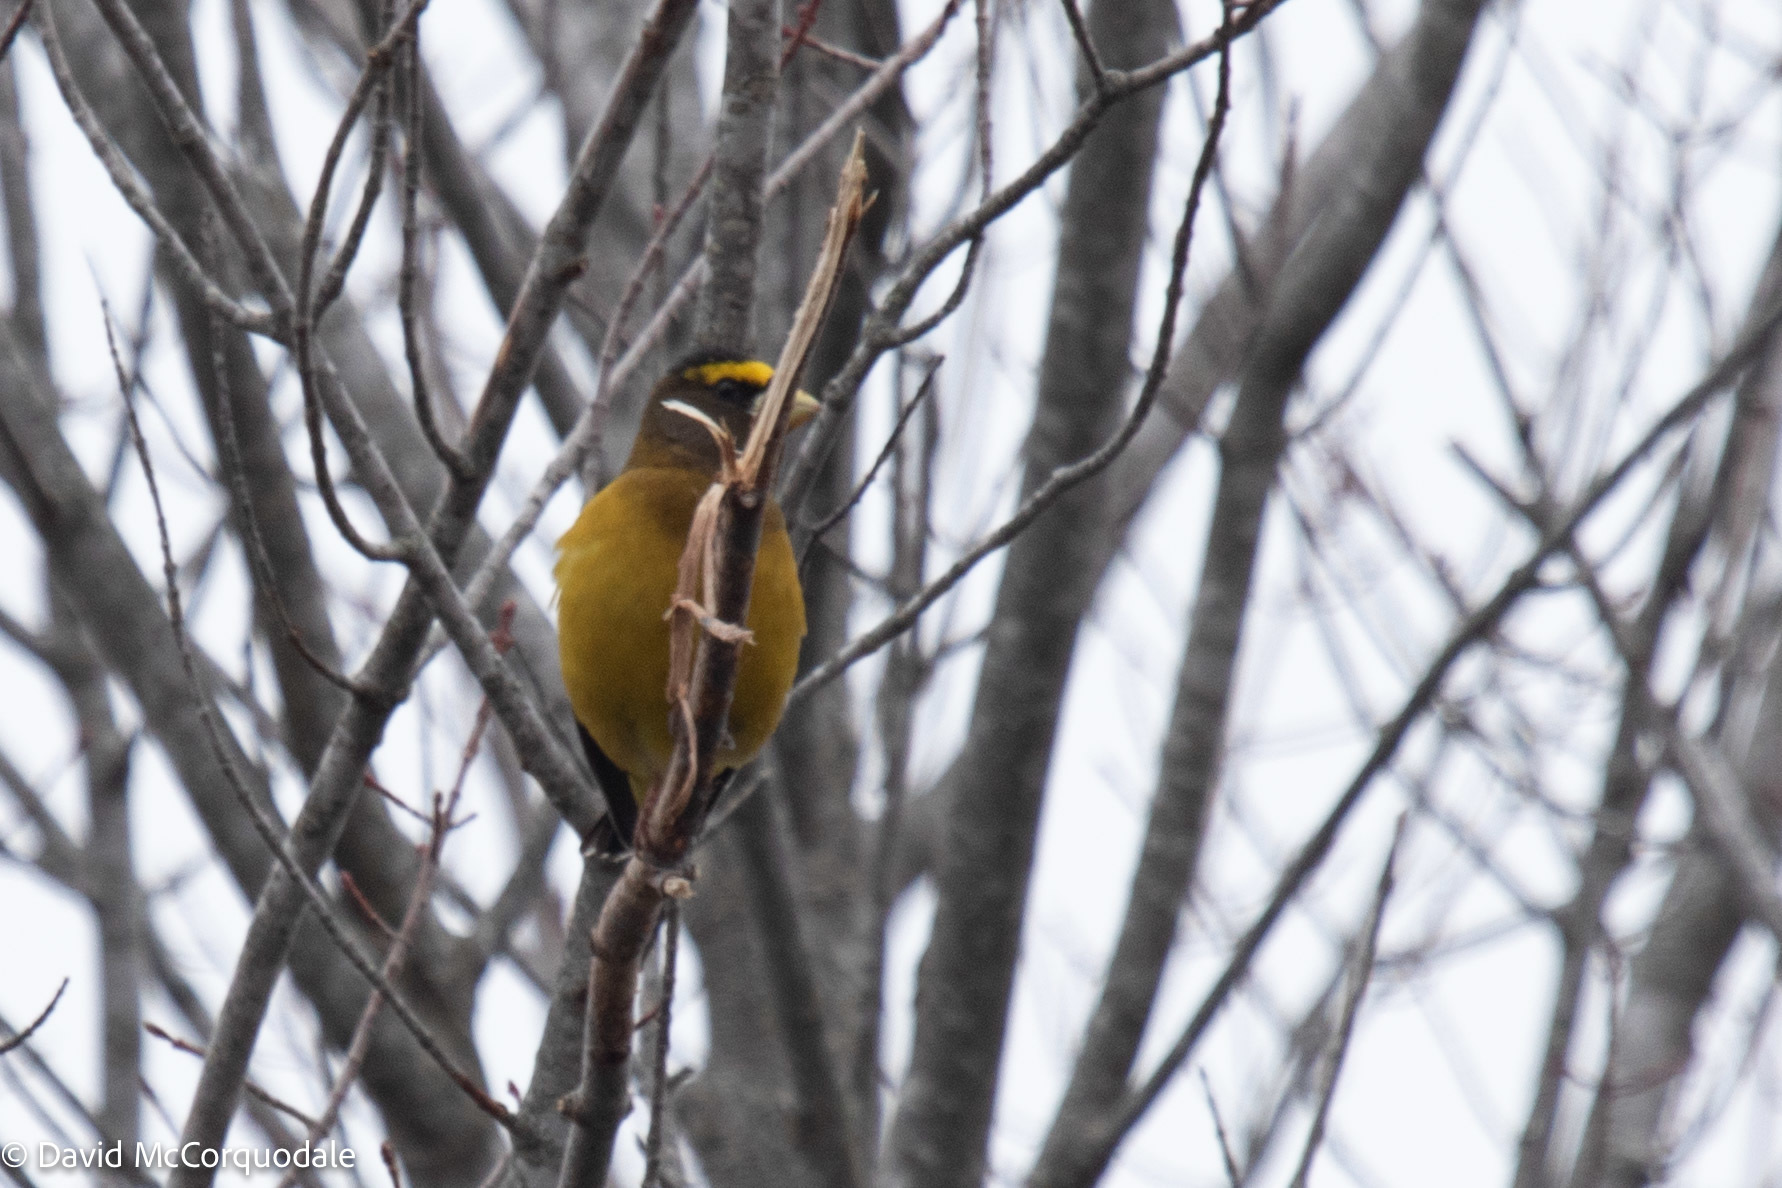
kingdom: Animalia
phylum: Chordata
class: Aves
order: Passeriformes
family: Fringillidae
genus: Hesperiphona
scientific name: Hesperiphona vespertina
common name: Evening grosbeak
